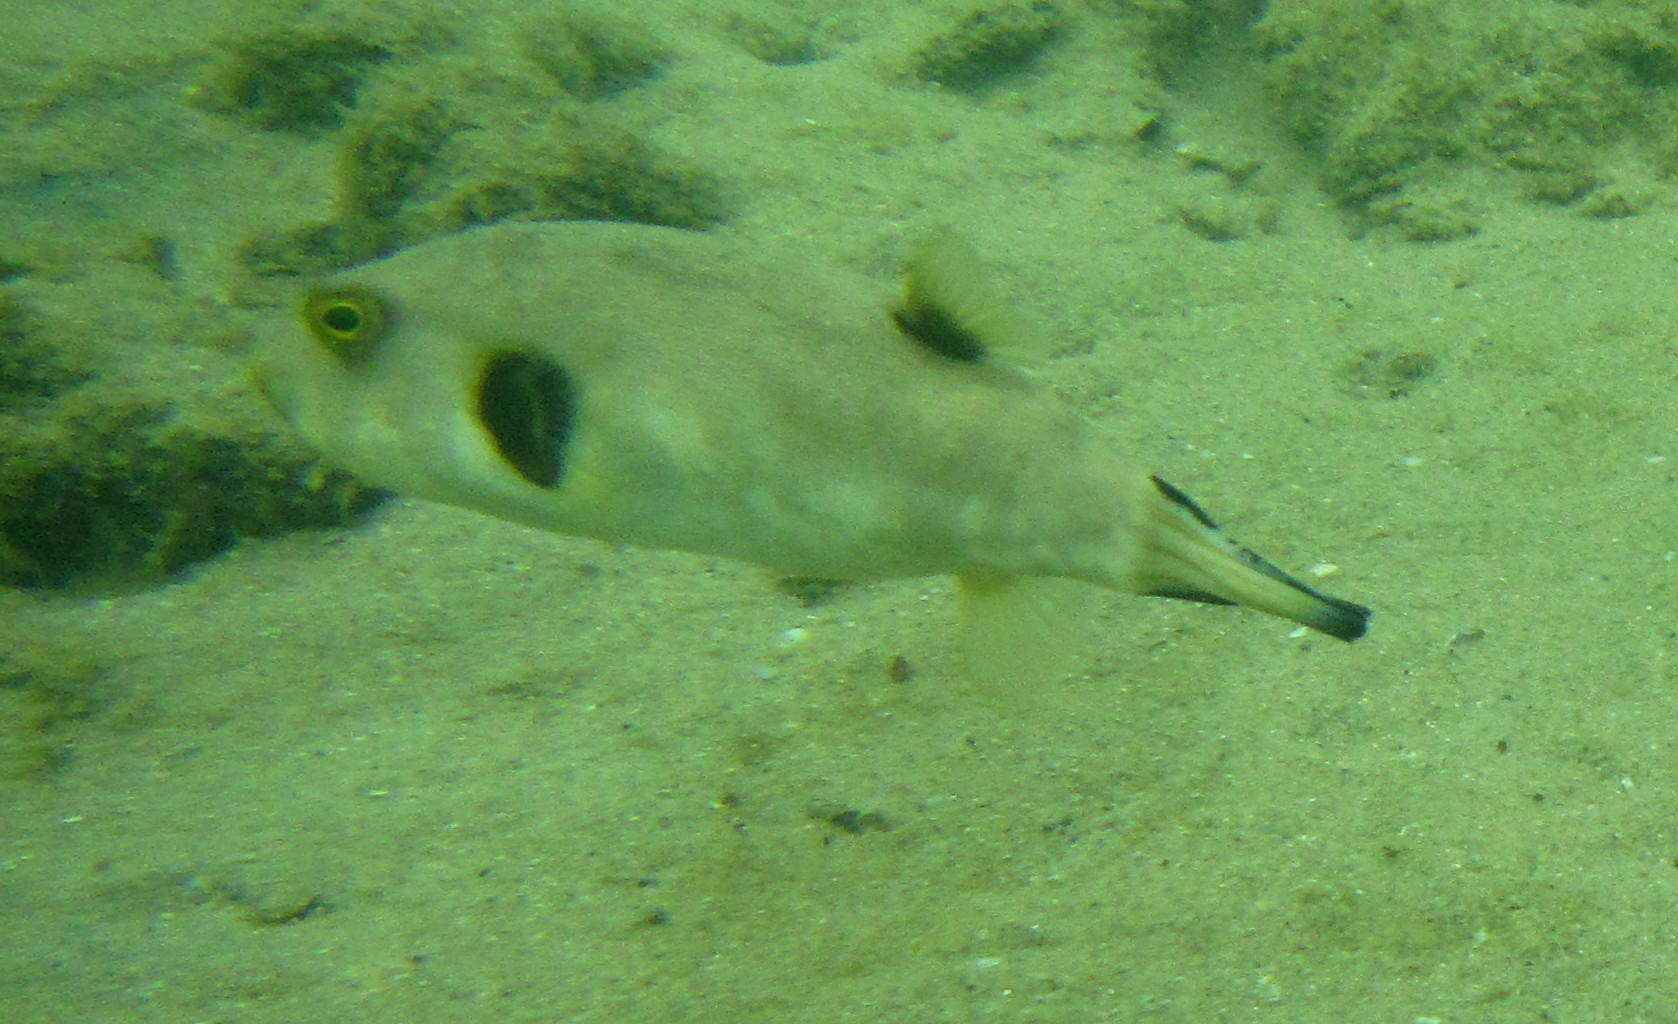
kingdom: Animalia
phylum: Chordata
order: Tetraodontiformes
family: Tetraodontidae
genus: Arothron
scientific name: Arothron immaculatus
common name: Blackedged blaasop
